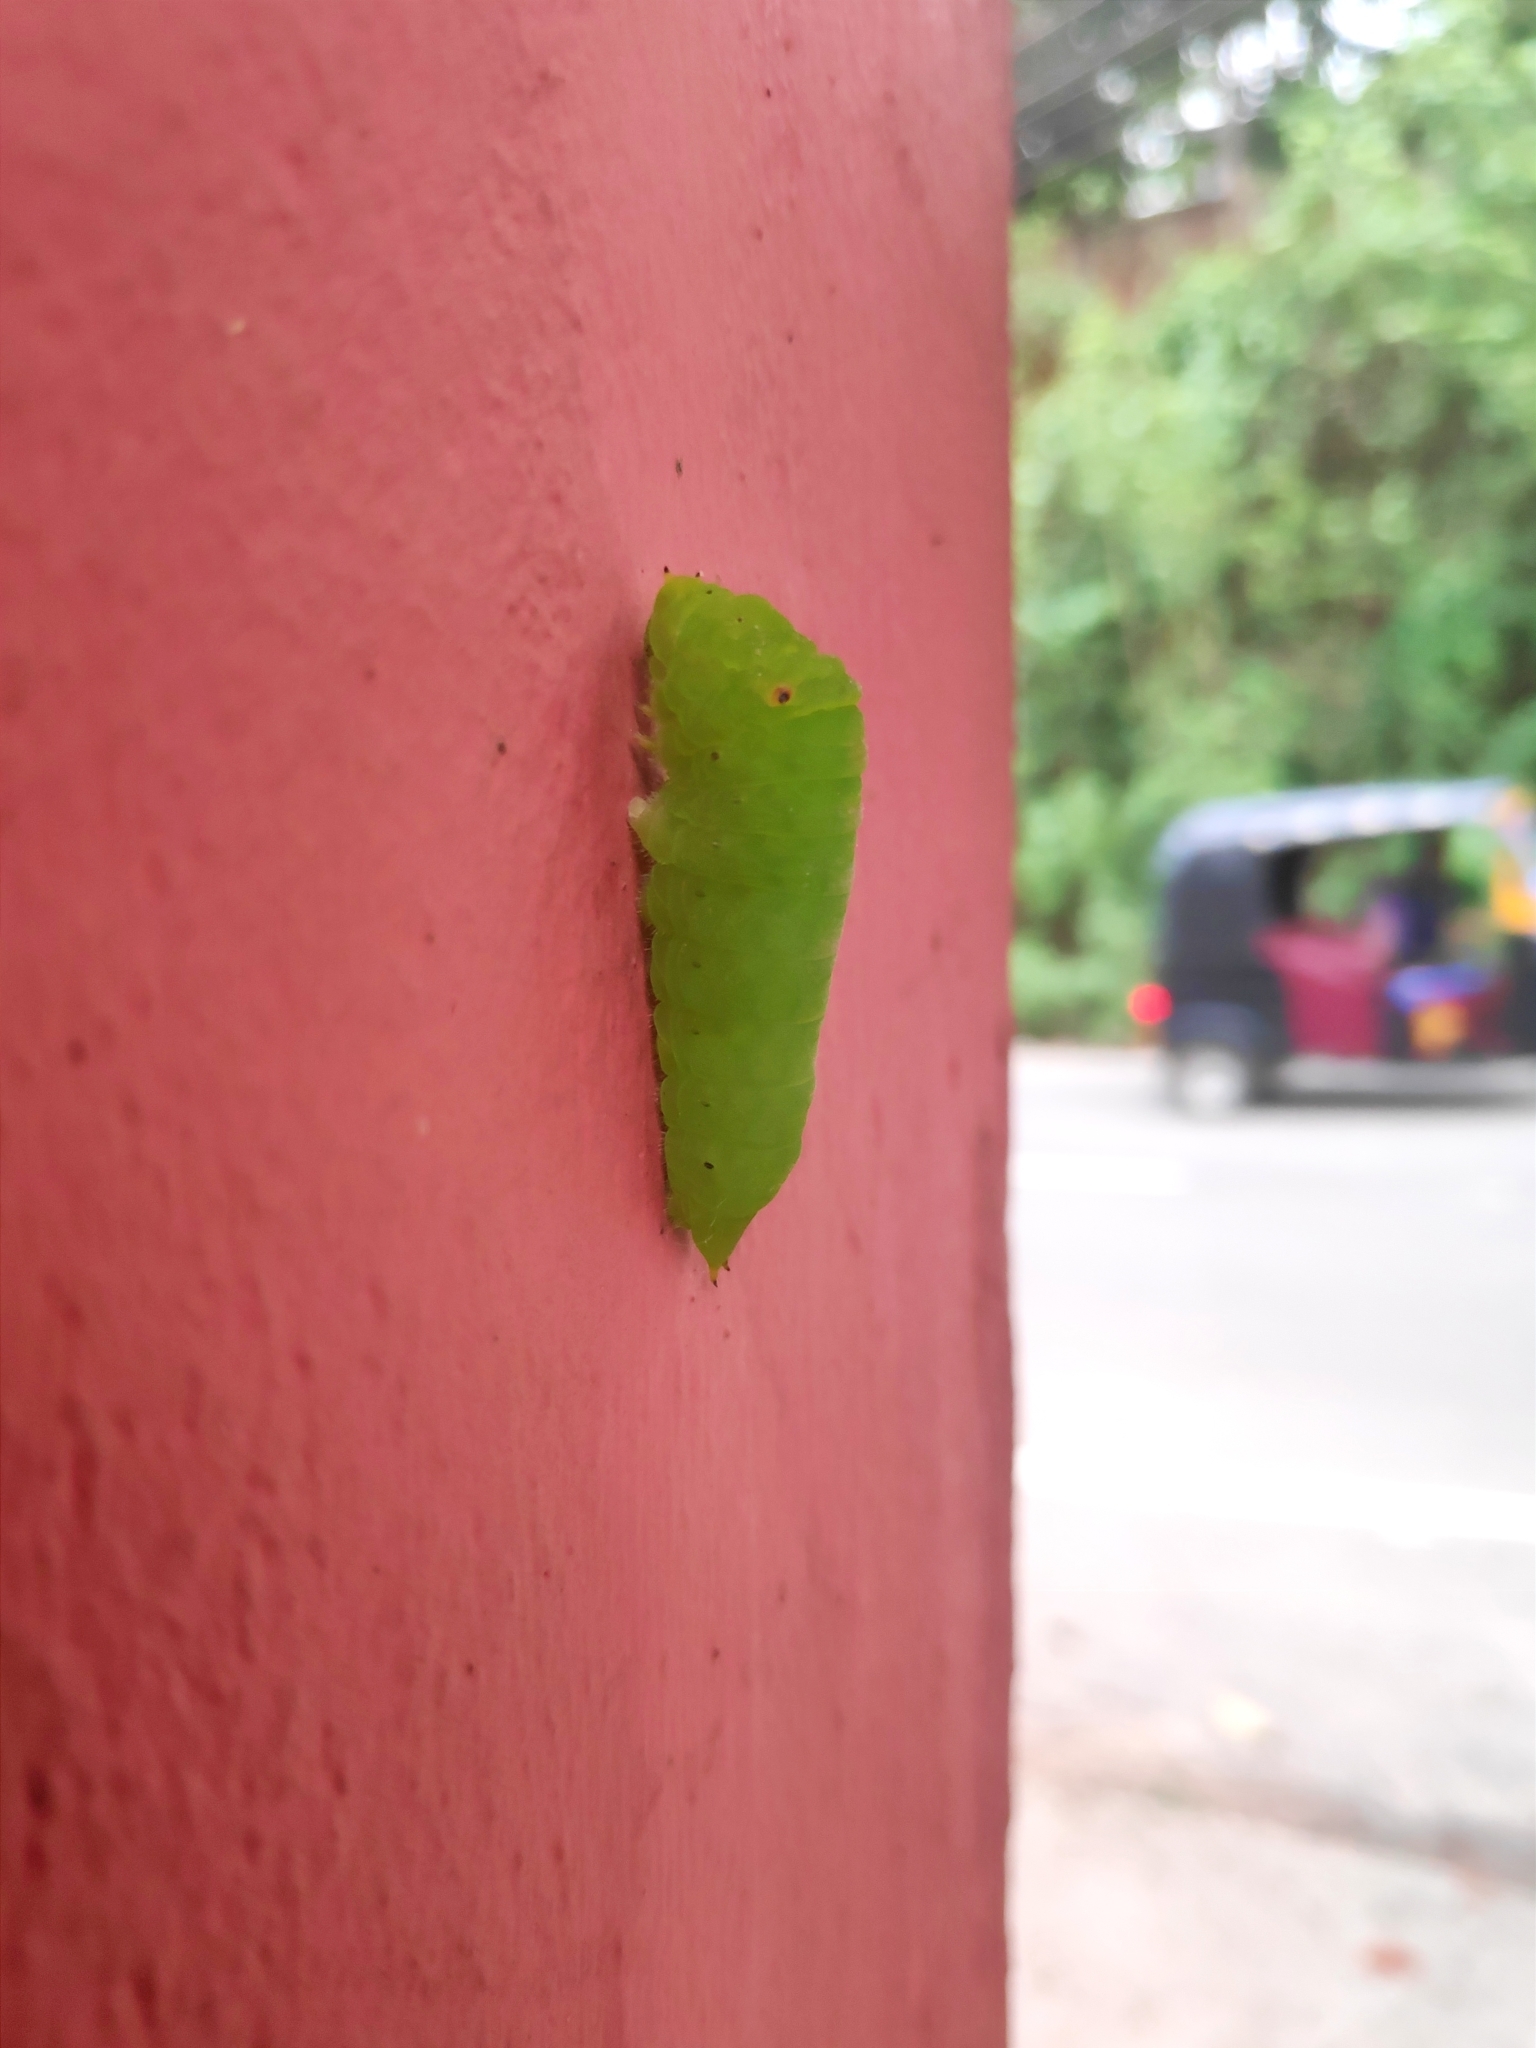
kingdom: Animalia
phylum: Arthropoda
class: Insecta
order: Lepidoptera
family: Papilionidae
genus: Graphium
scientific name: Graphium doson
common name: Common jay
